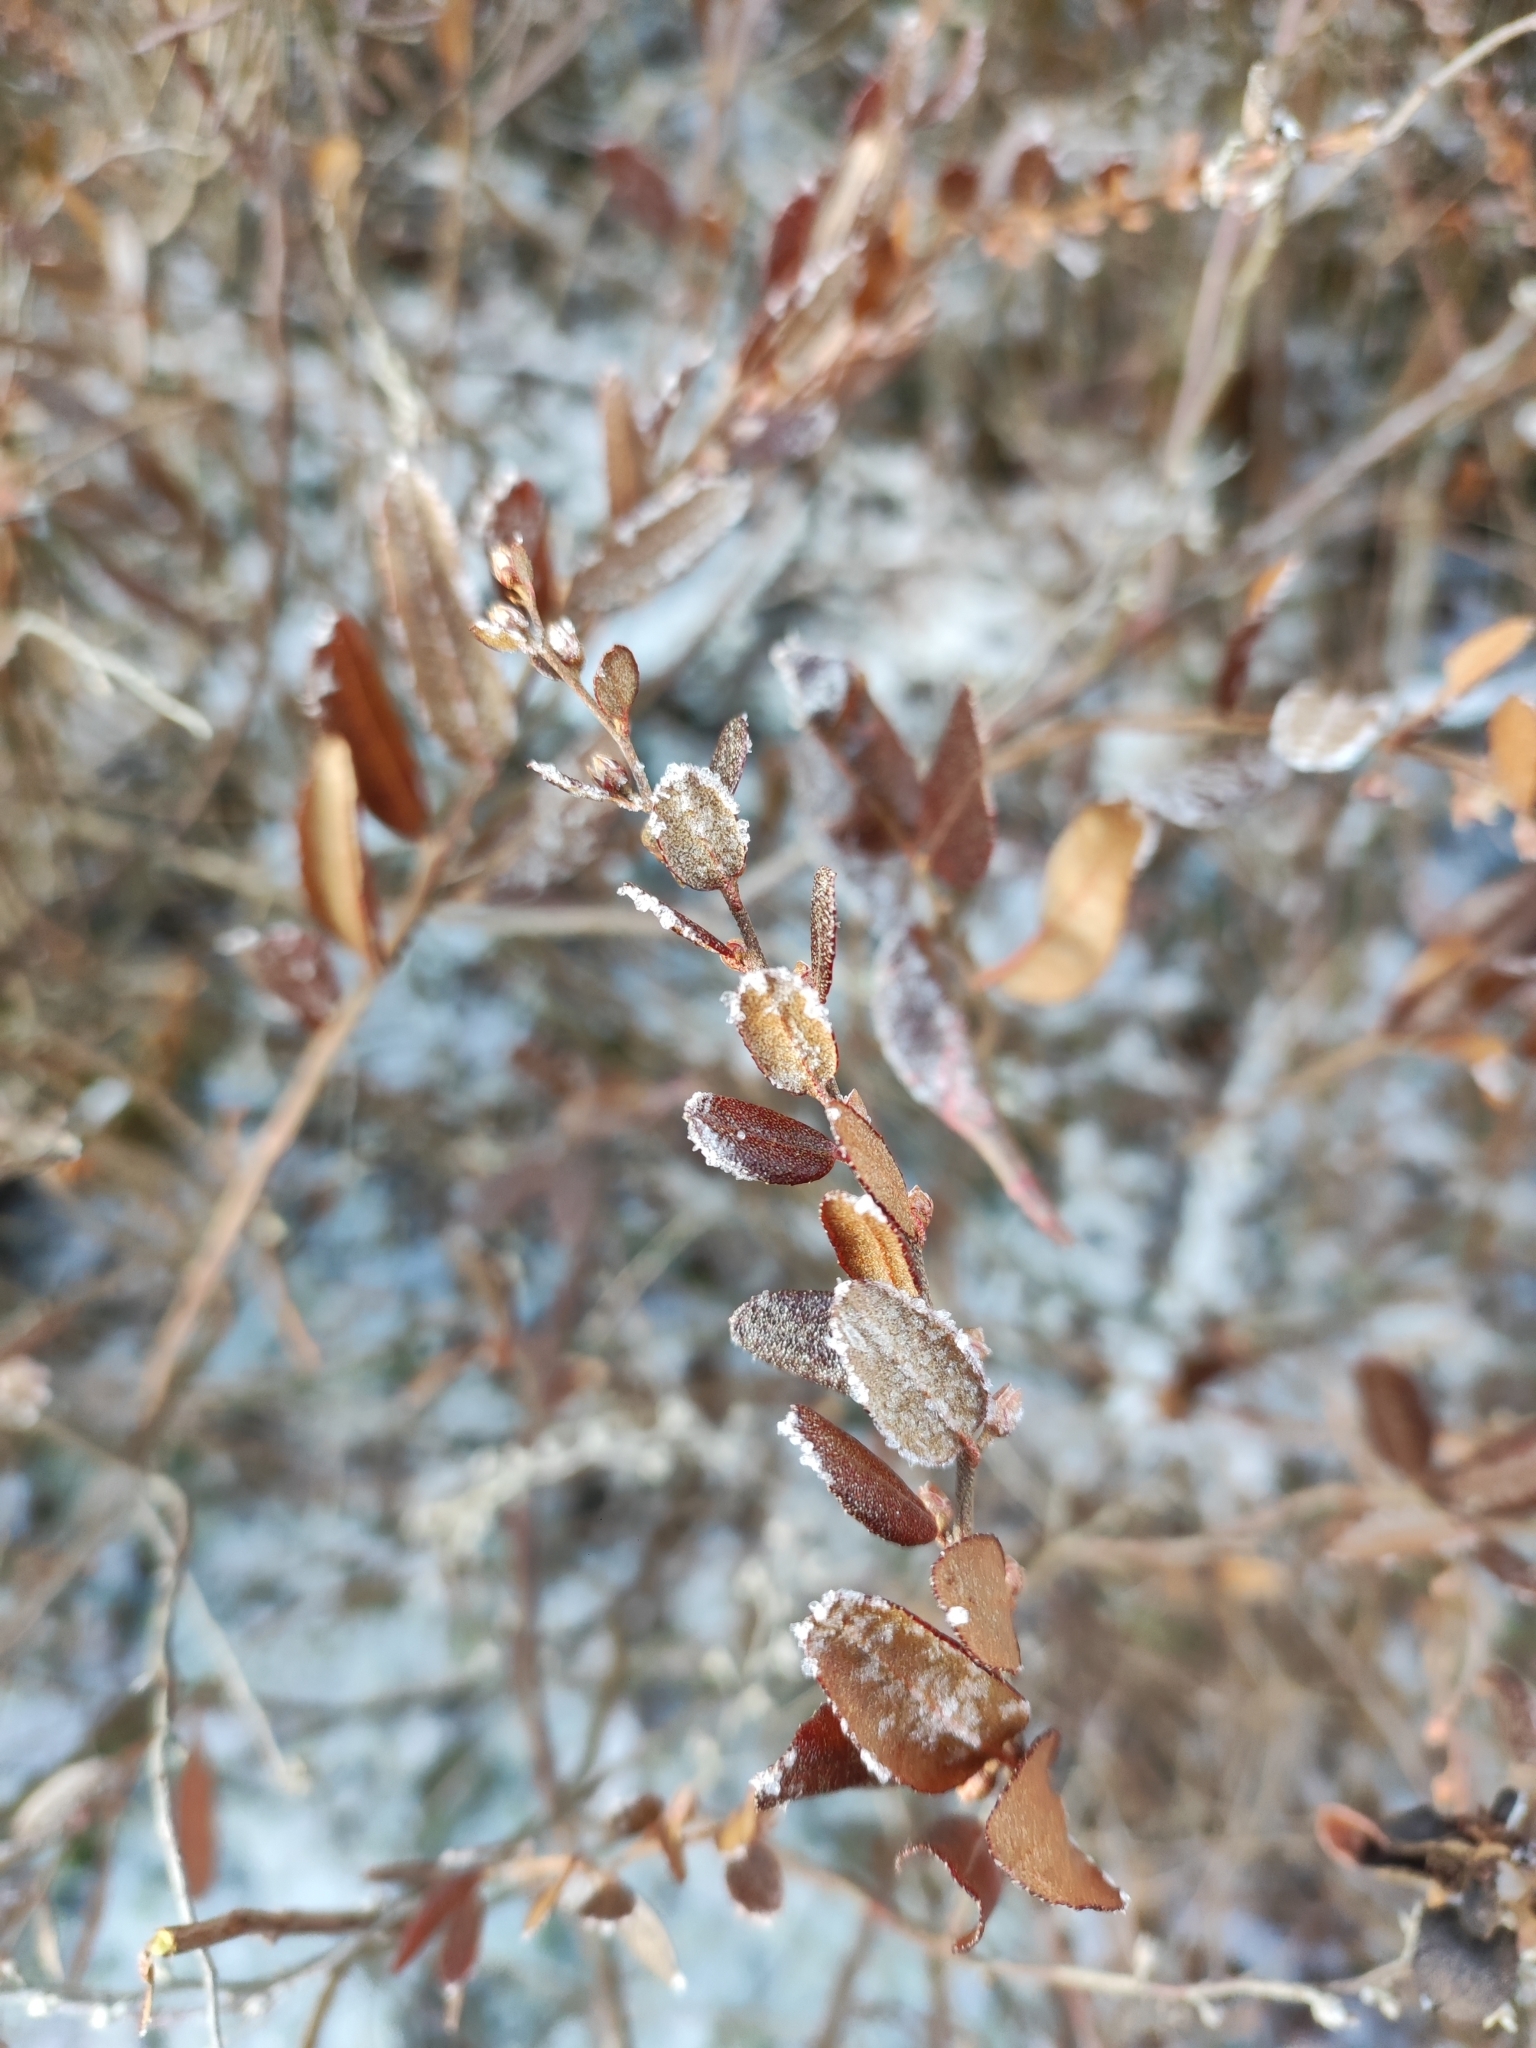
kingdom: Plantae
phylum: Tracheophyta
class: Magnoliopsida
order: Ericales
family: Ericaceae
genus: Chamaedaphne
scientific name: Chamaedaphne calyculata
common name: Leatherleaf
